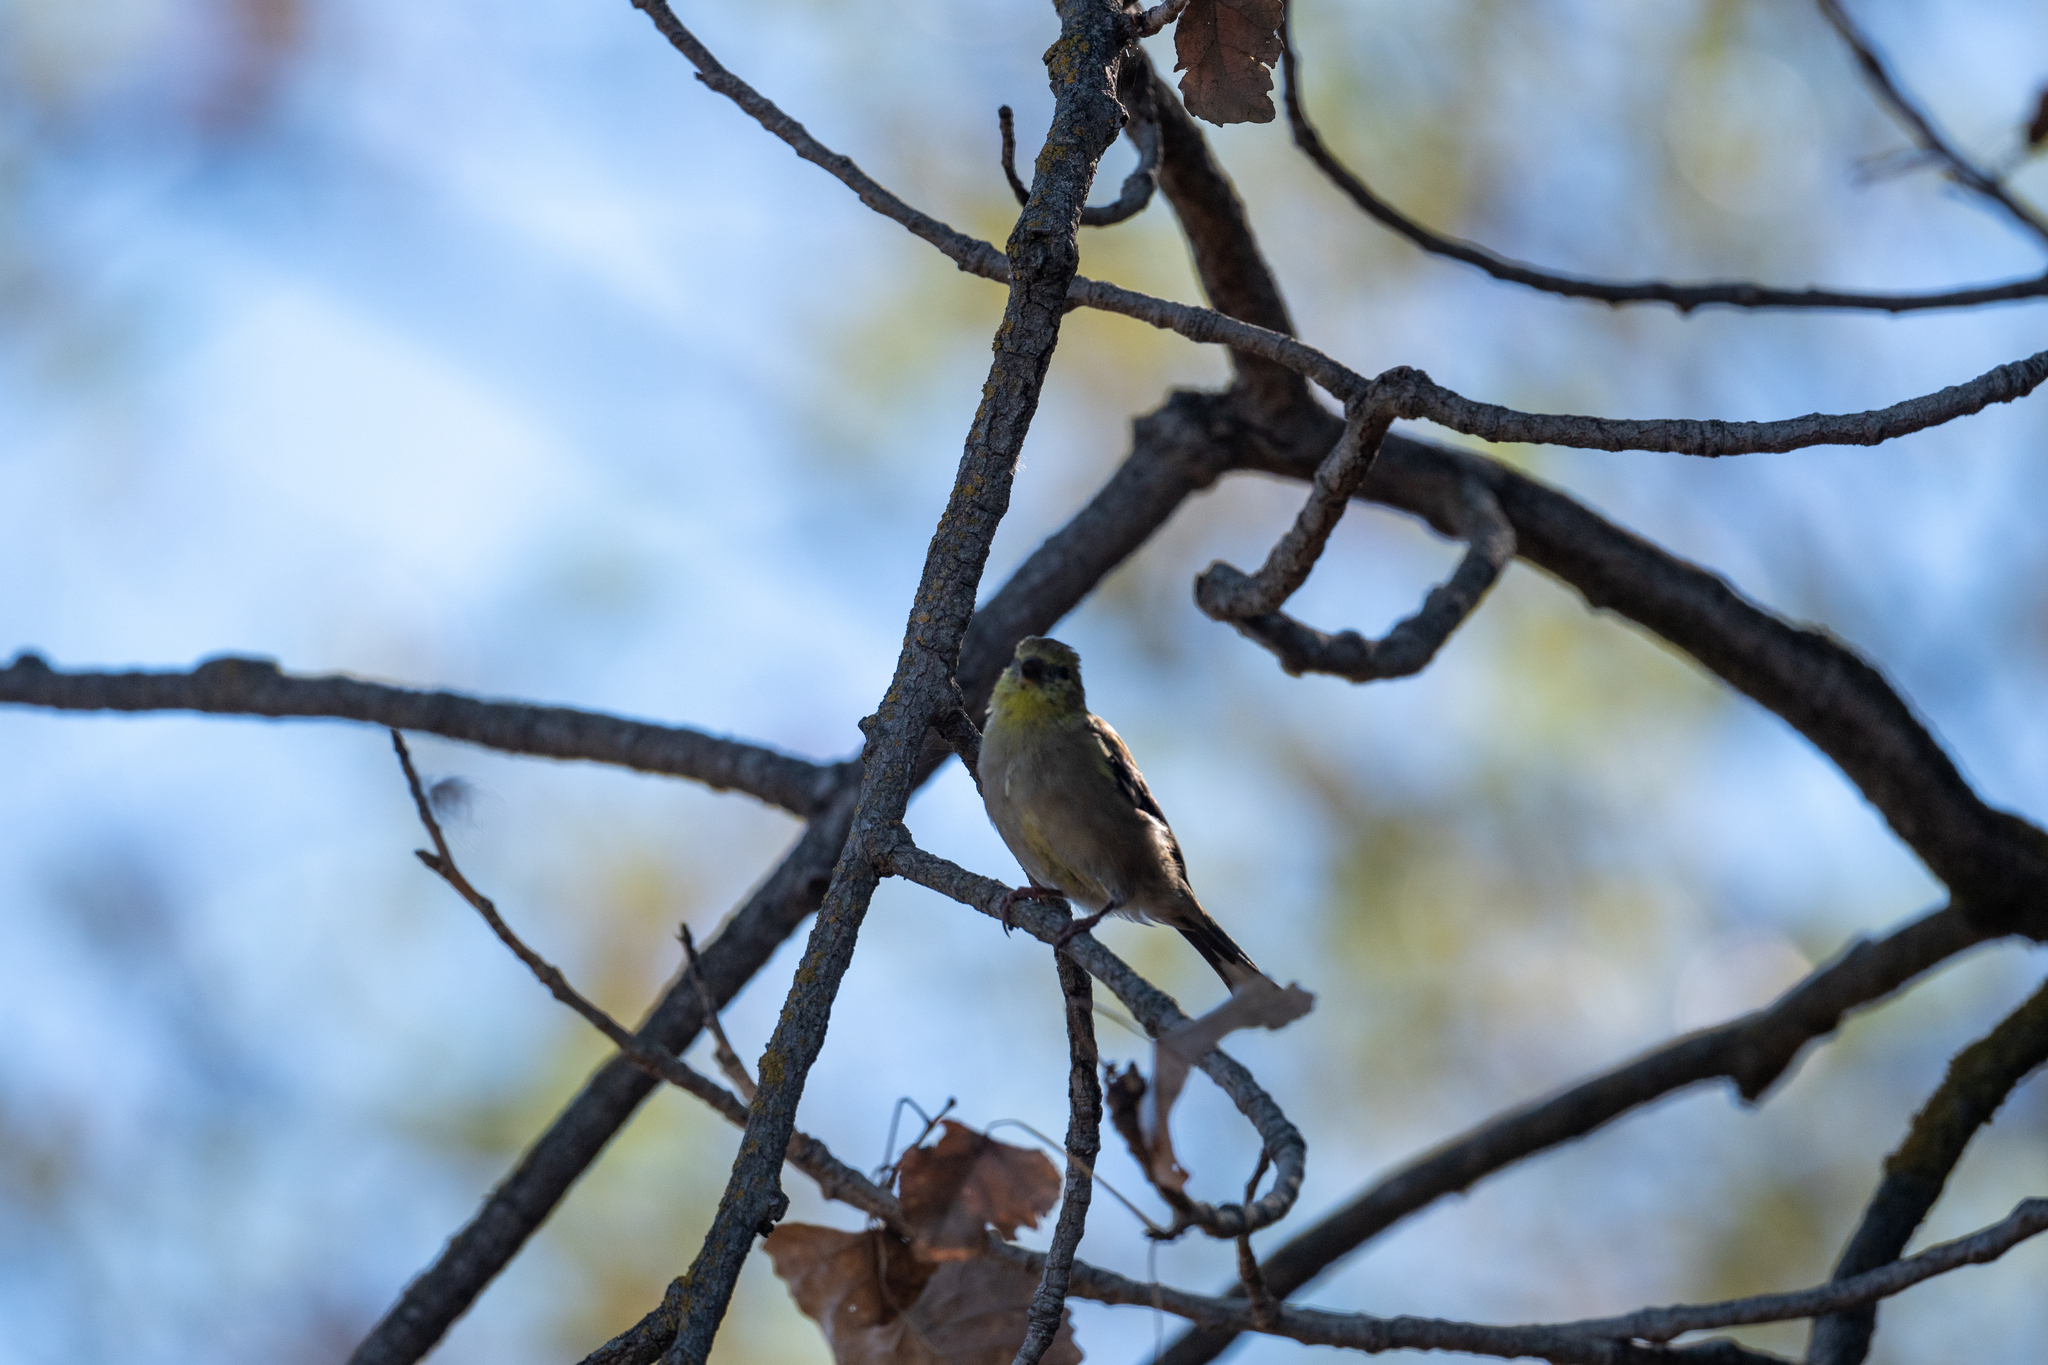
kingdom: Animalia
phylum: Chordata
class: Aves
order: Passeriformes
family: Fringillidae
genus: Spinus
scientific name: Spinus tristis
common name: American goldfinch
